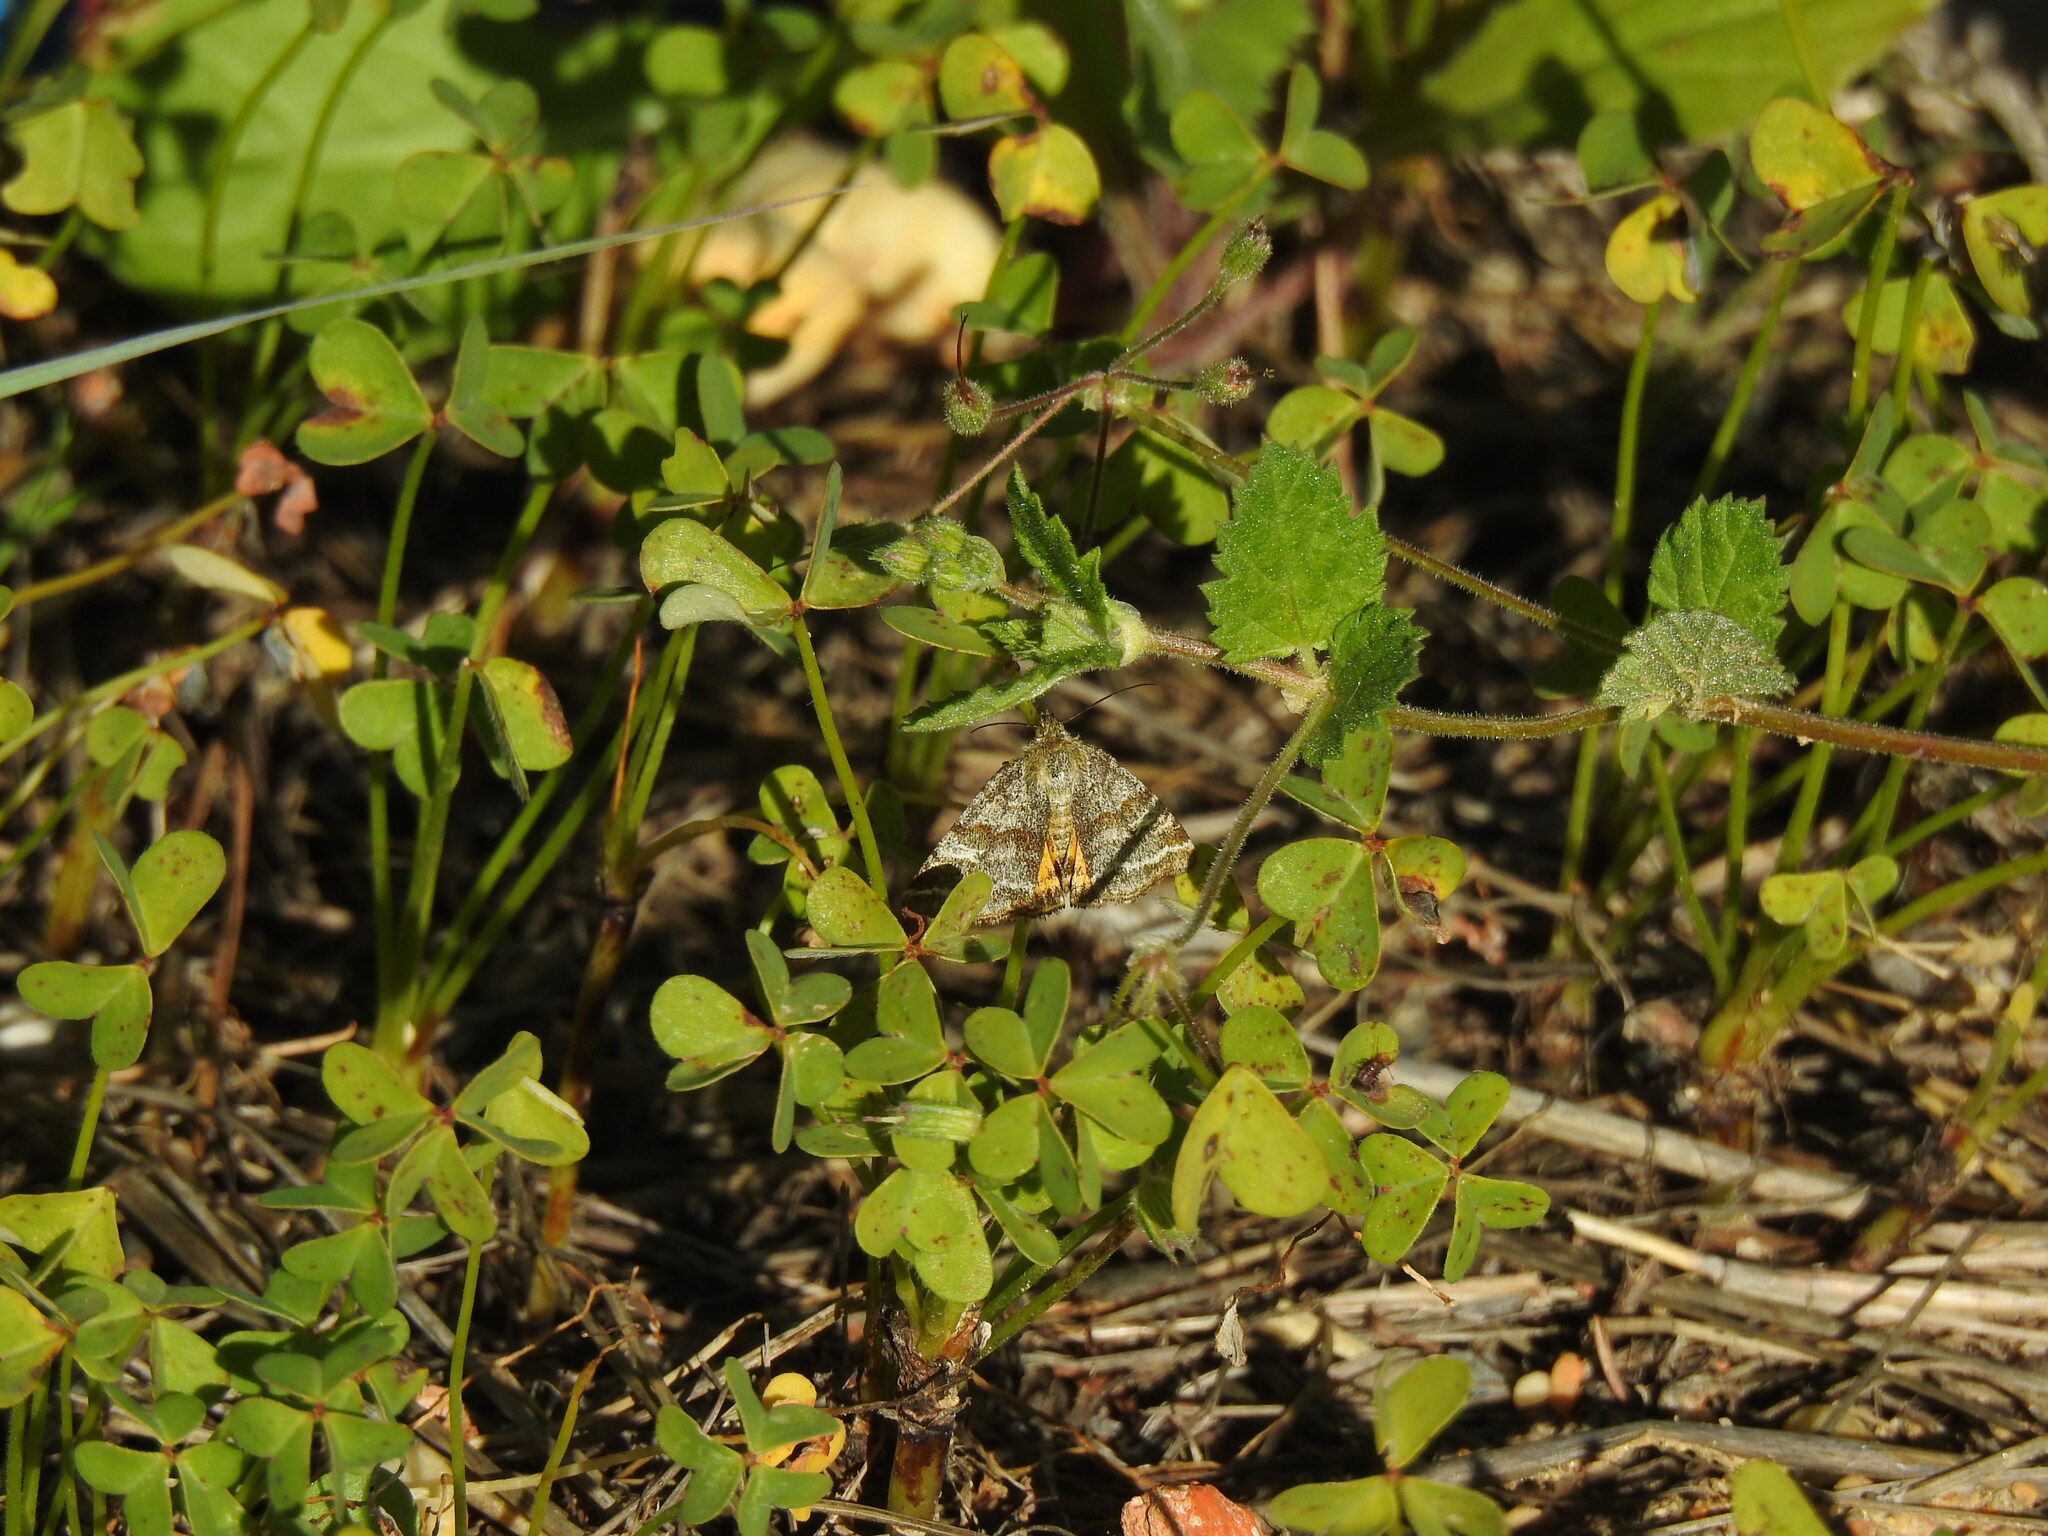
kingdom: Animalia
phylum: Arthropoda
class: Insecta
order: Lepidoptera
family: Noctuidae
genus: Synthymia
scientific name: Synthymia fixa
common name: Goldwing
